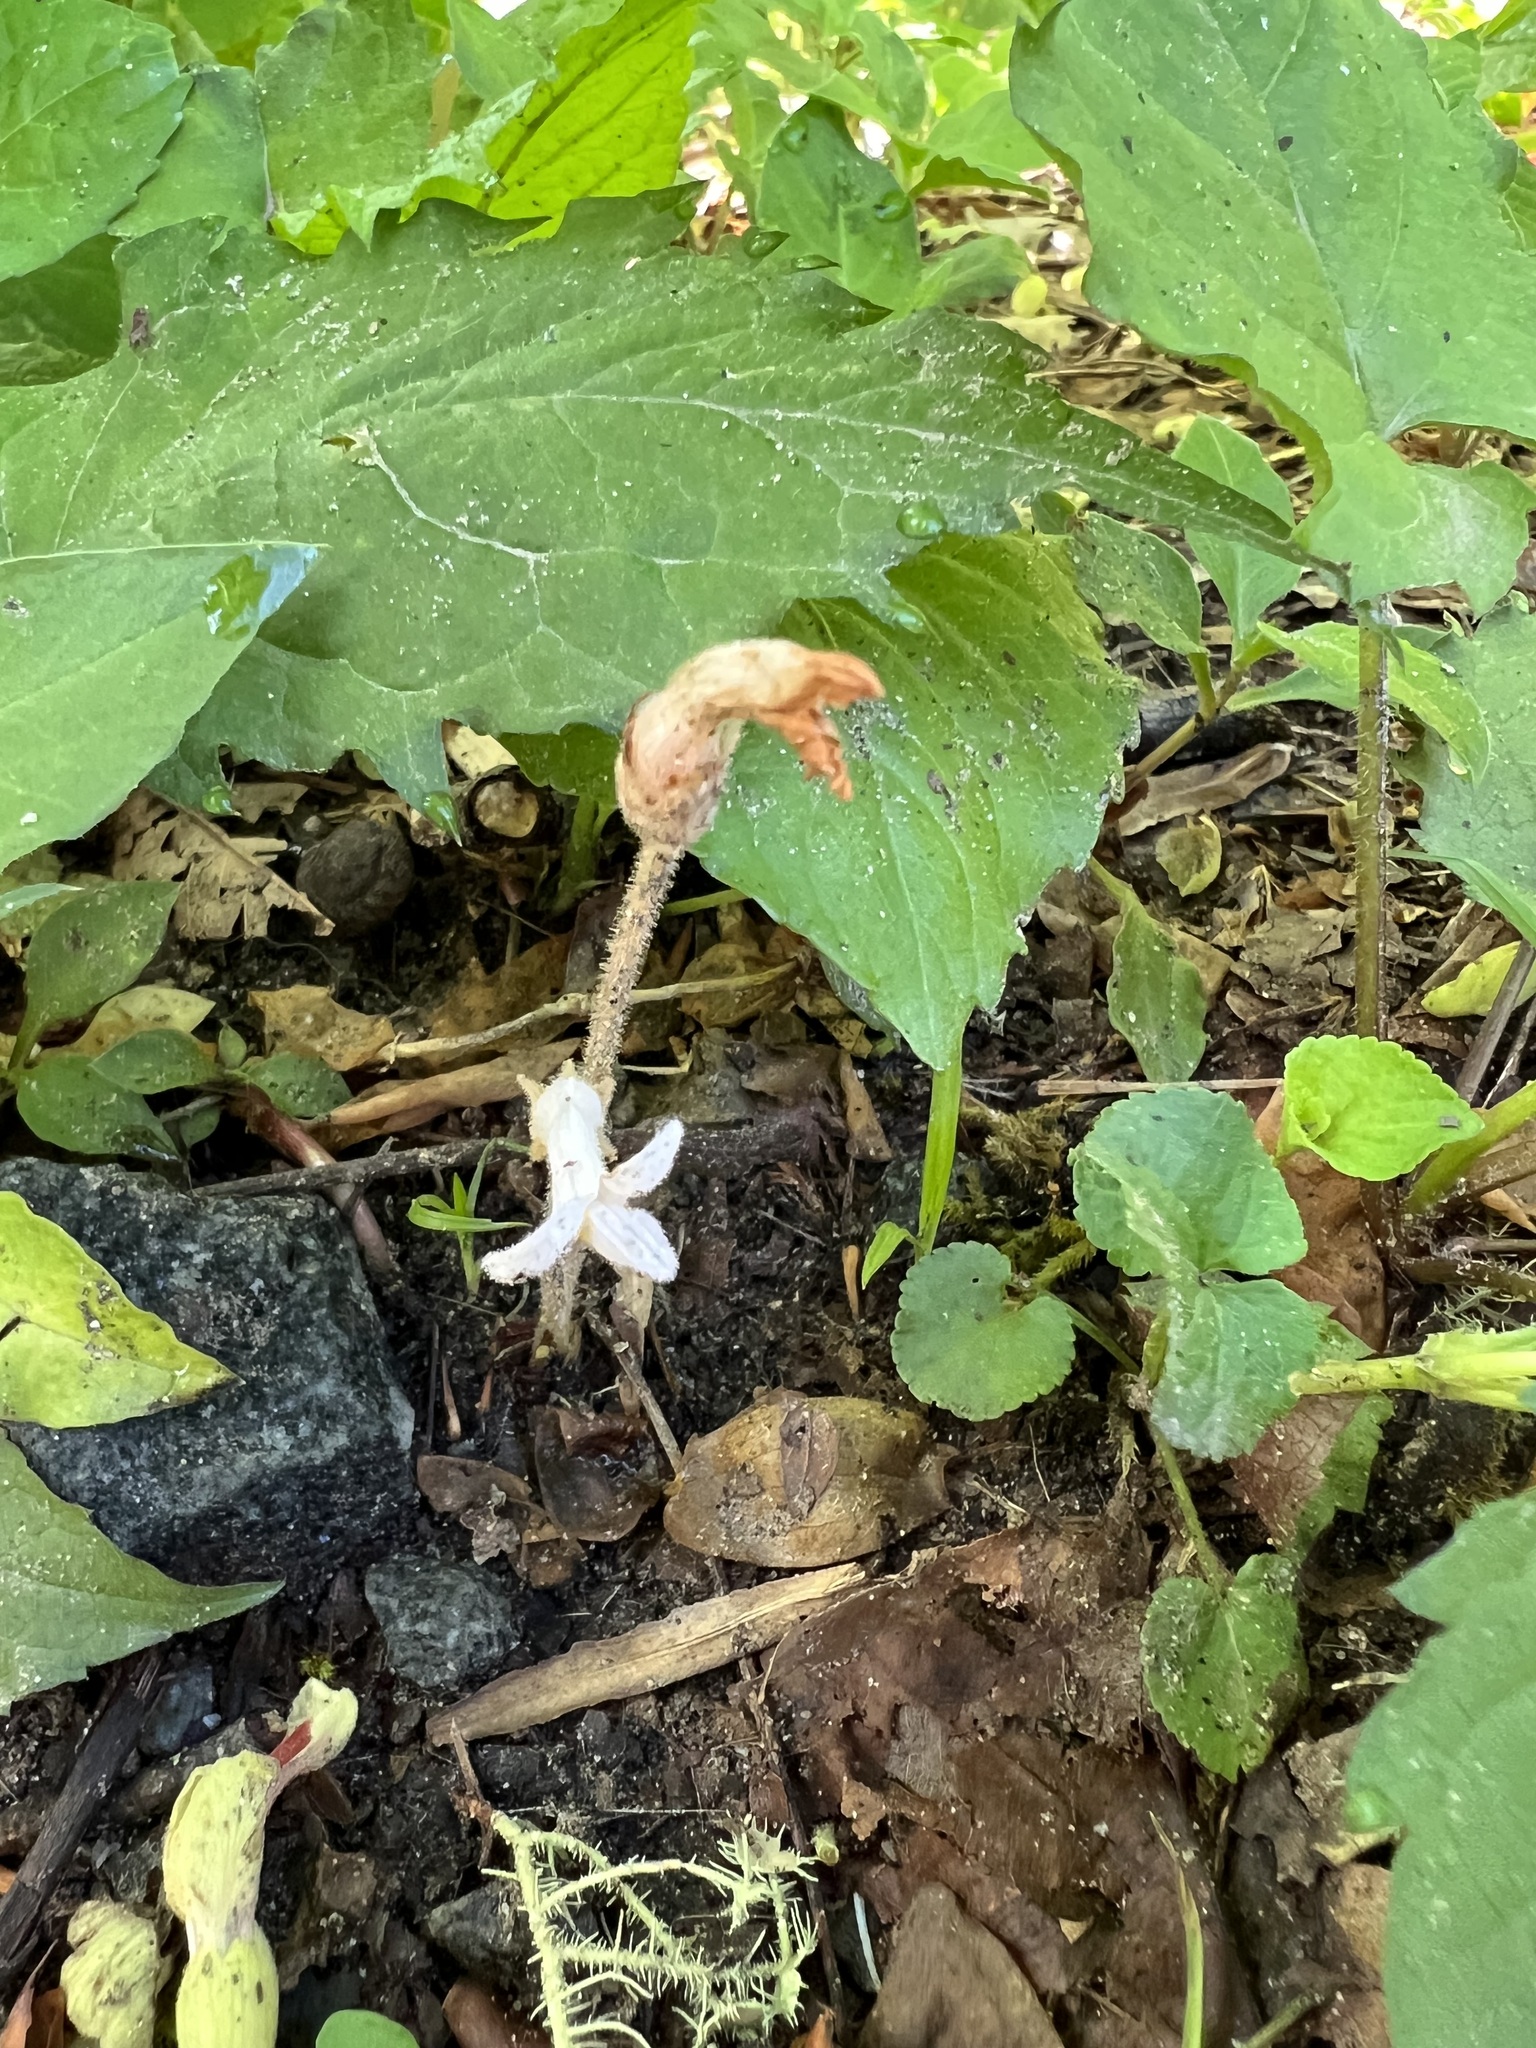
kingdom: Plantae
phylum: Tracheophyta
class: Magnoliopsida
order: Lamiales
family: Orobanchaceae
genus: Aphyllon
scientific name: Aphyllon uniflorum
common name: One-flowered broomrape
